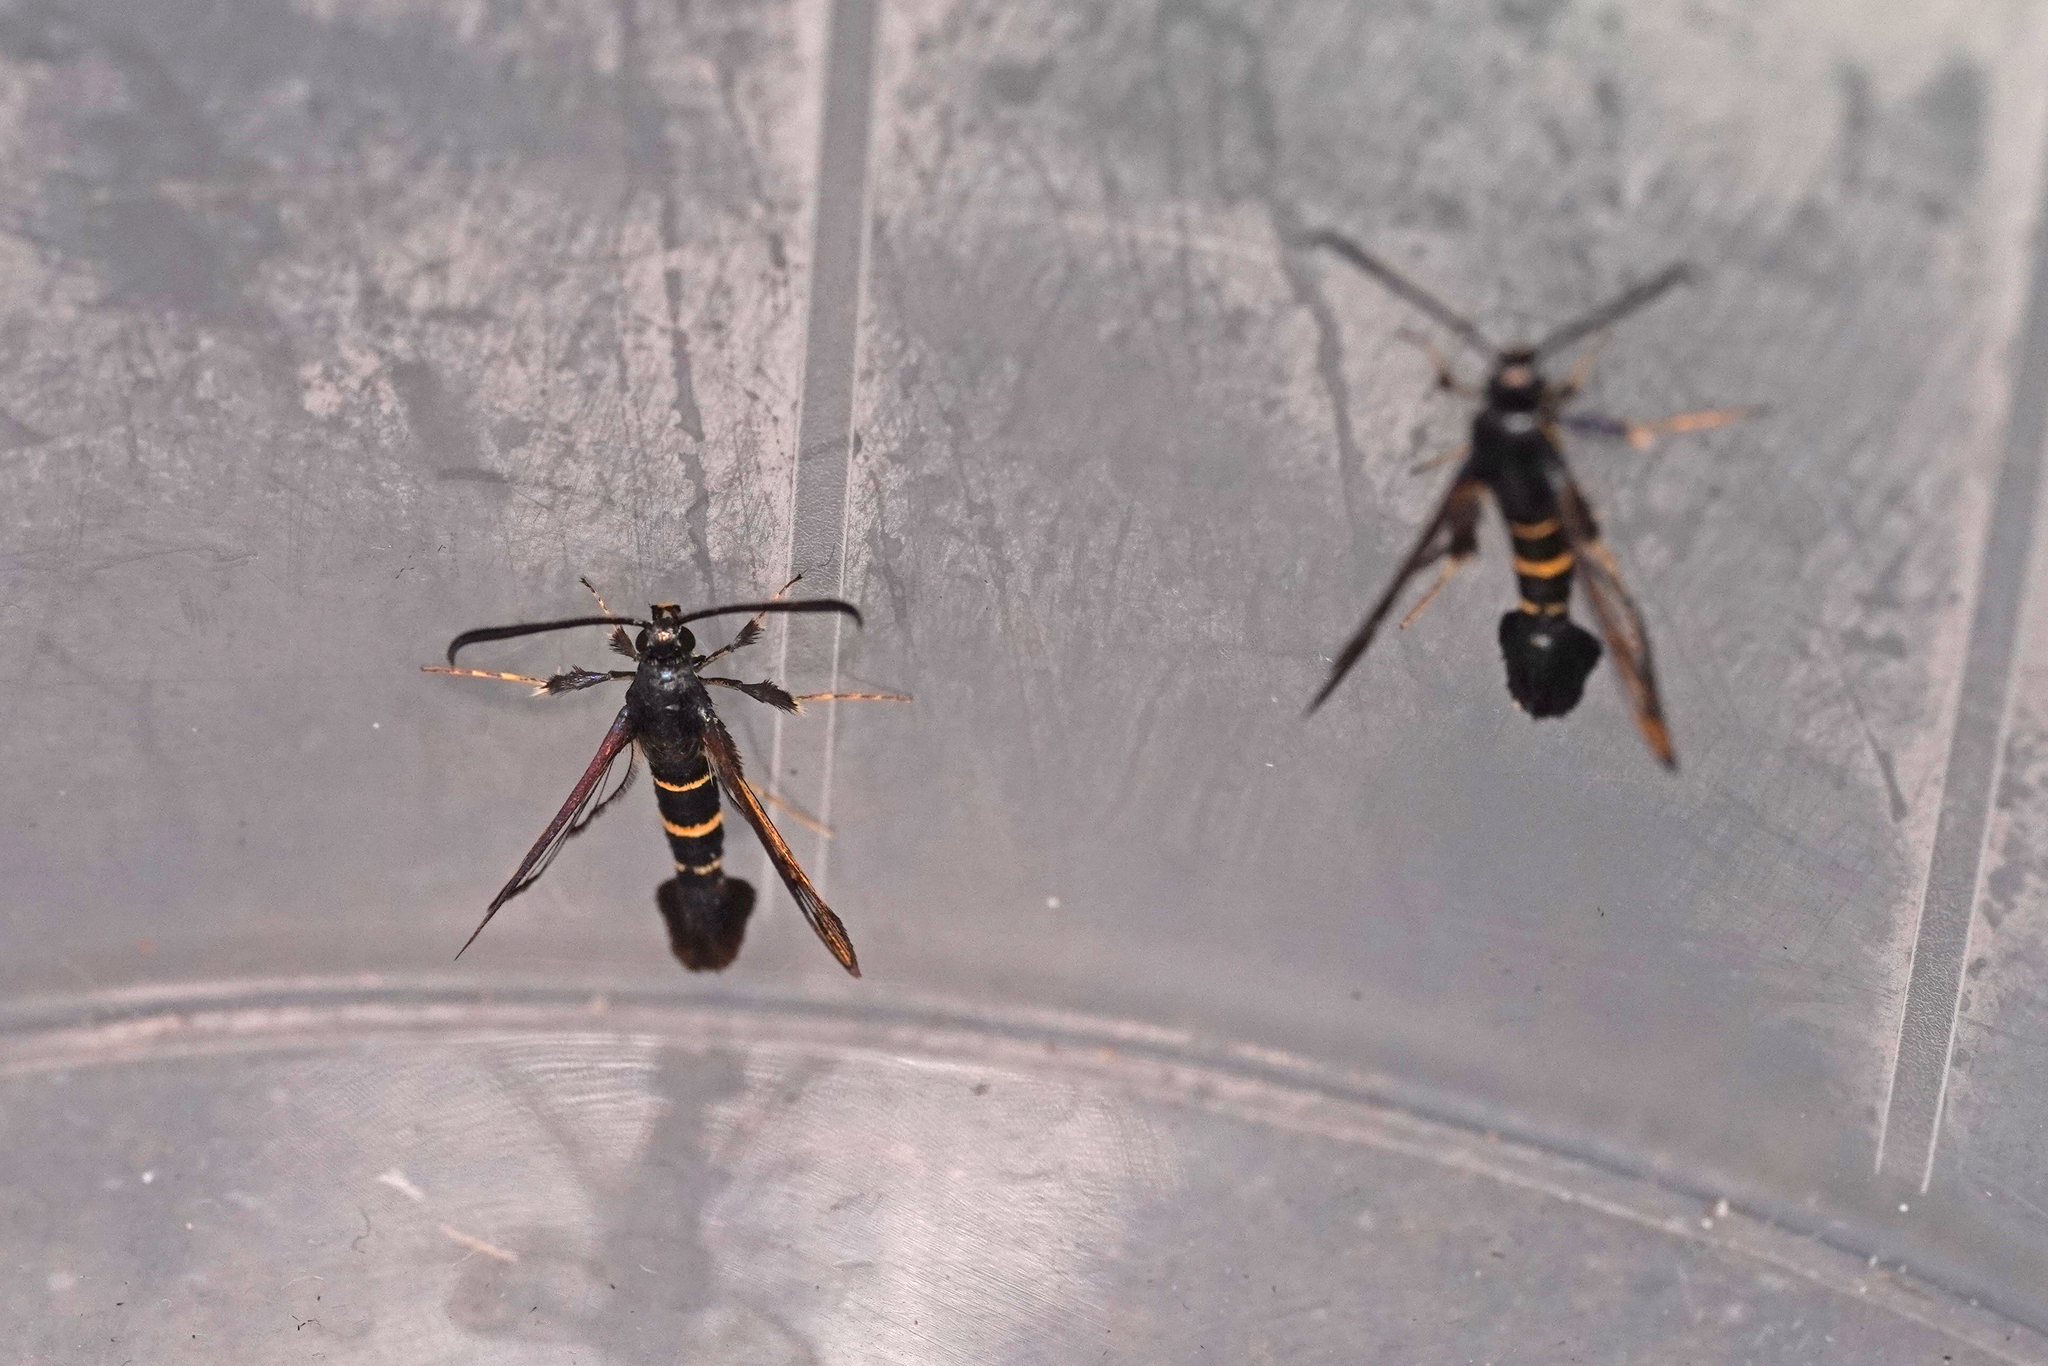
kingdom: Animalia
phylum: Arthropoda
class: Insecta
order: Lepidoptera
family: Sesiidae
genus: Synanthedon
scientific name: Synanthedon flaviventris
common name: Sallow clearwing
